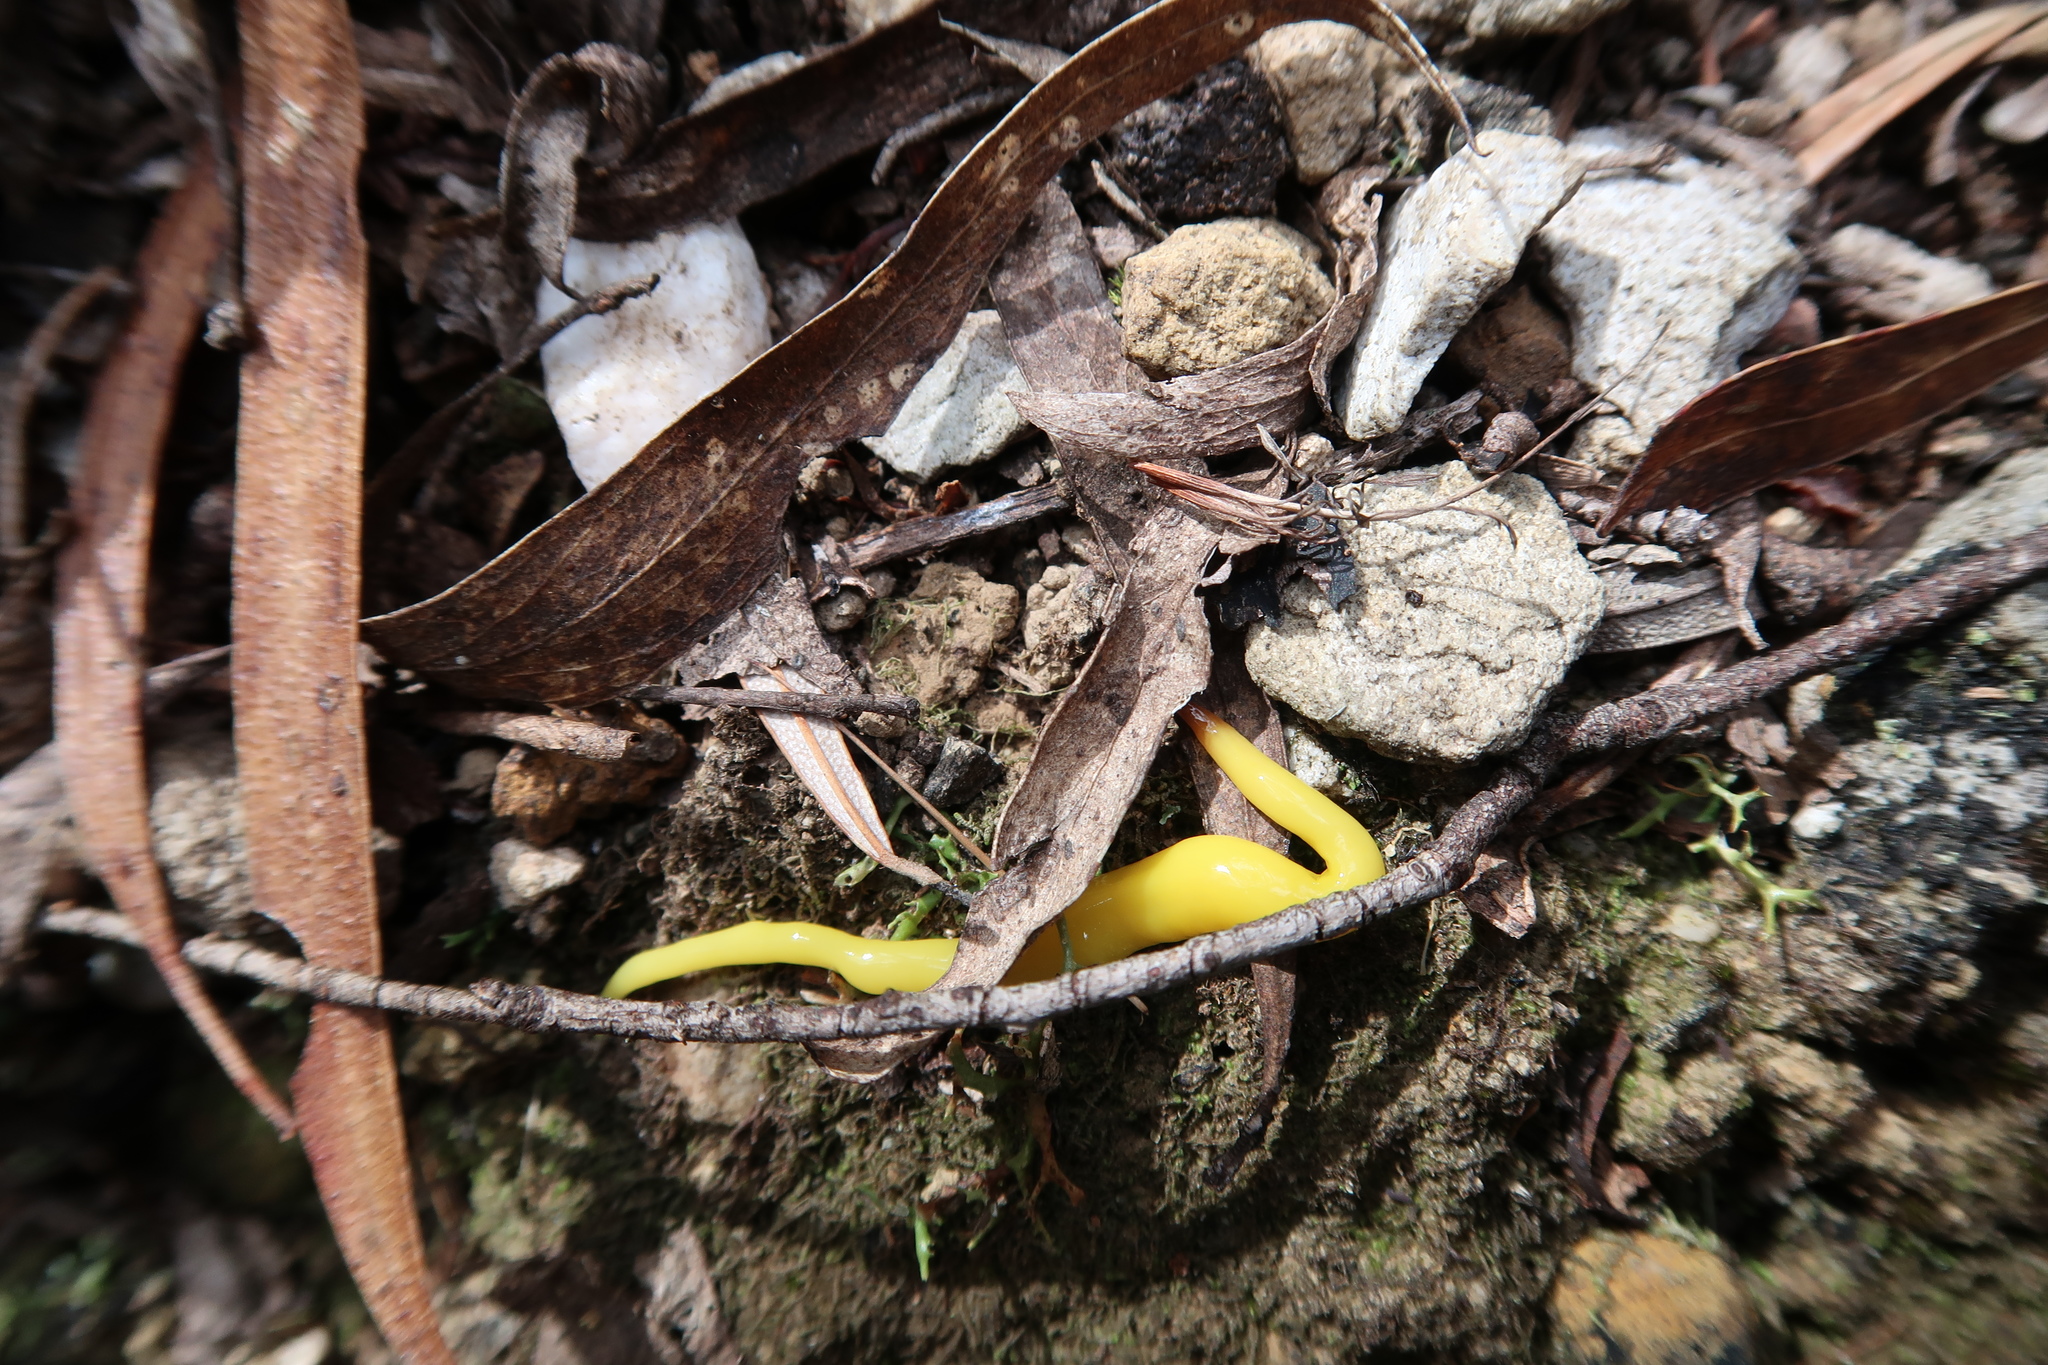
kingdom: Animalia
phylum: Platyhelminthes
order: Tricladida
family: Geoplanidae
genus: Fletchamia
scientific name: Fletchamia sugdeni
